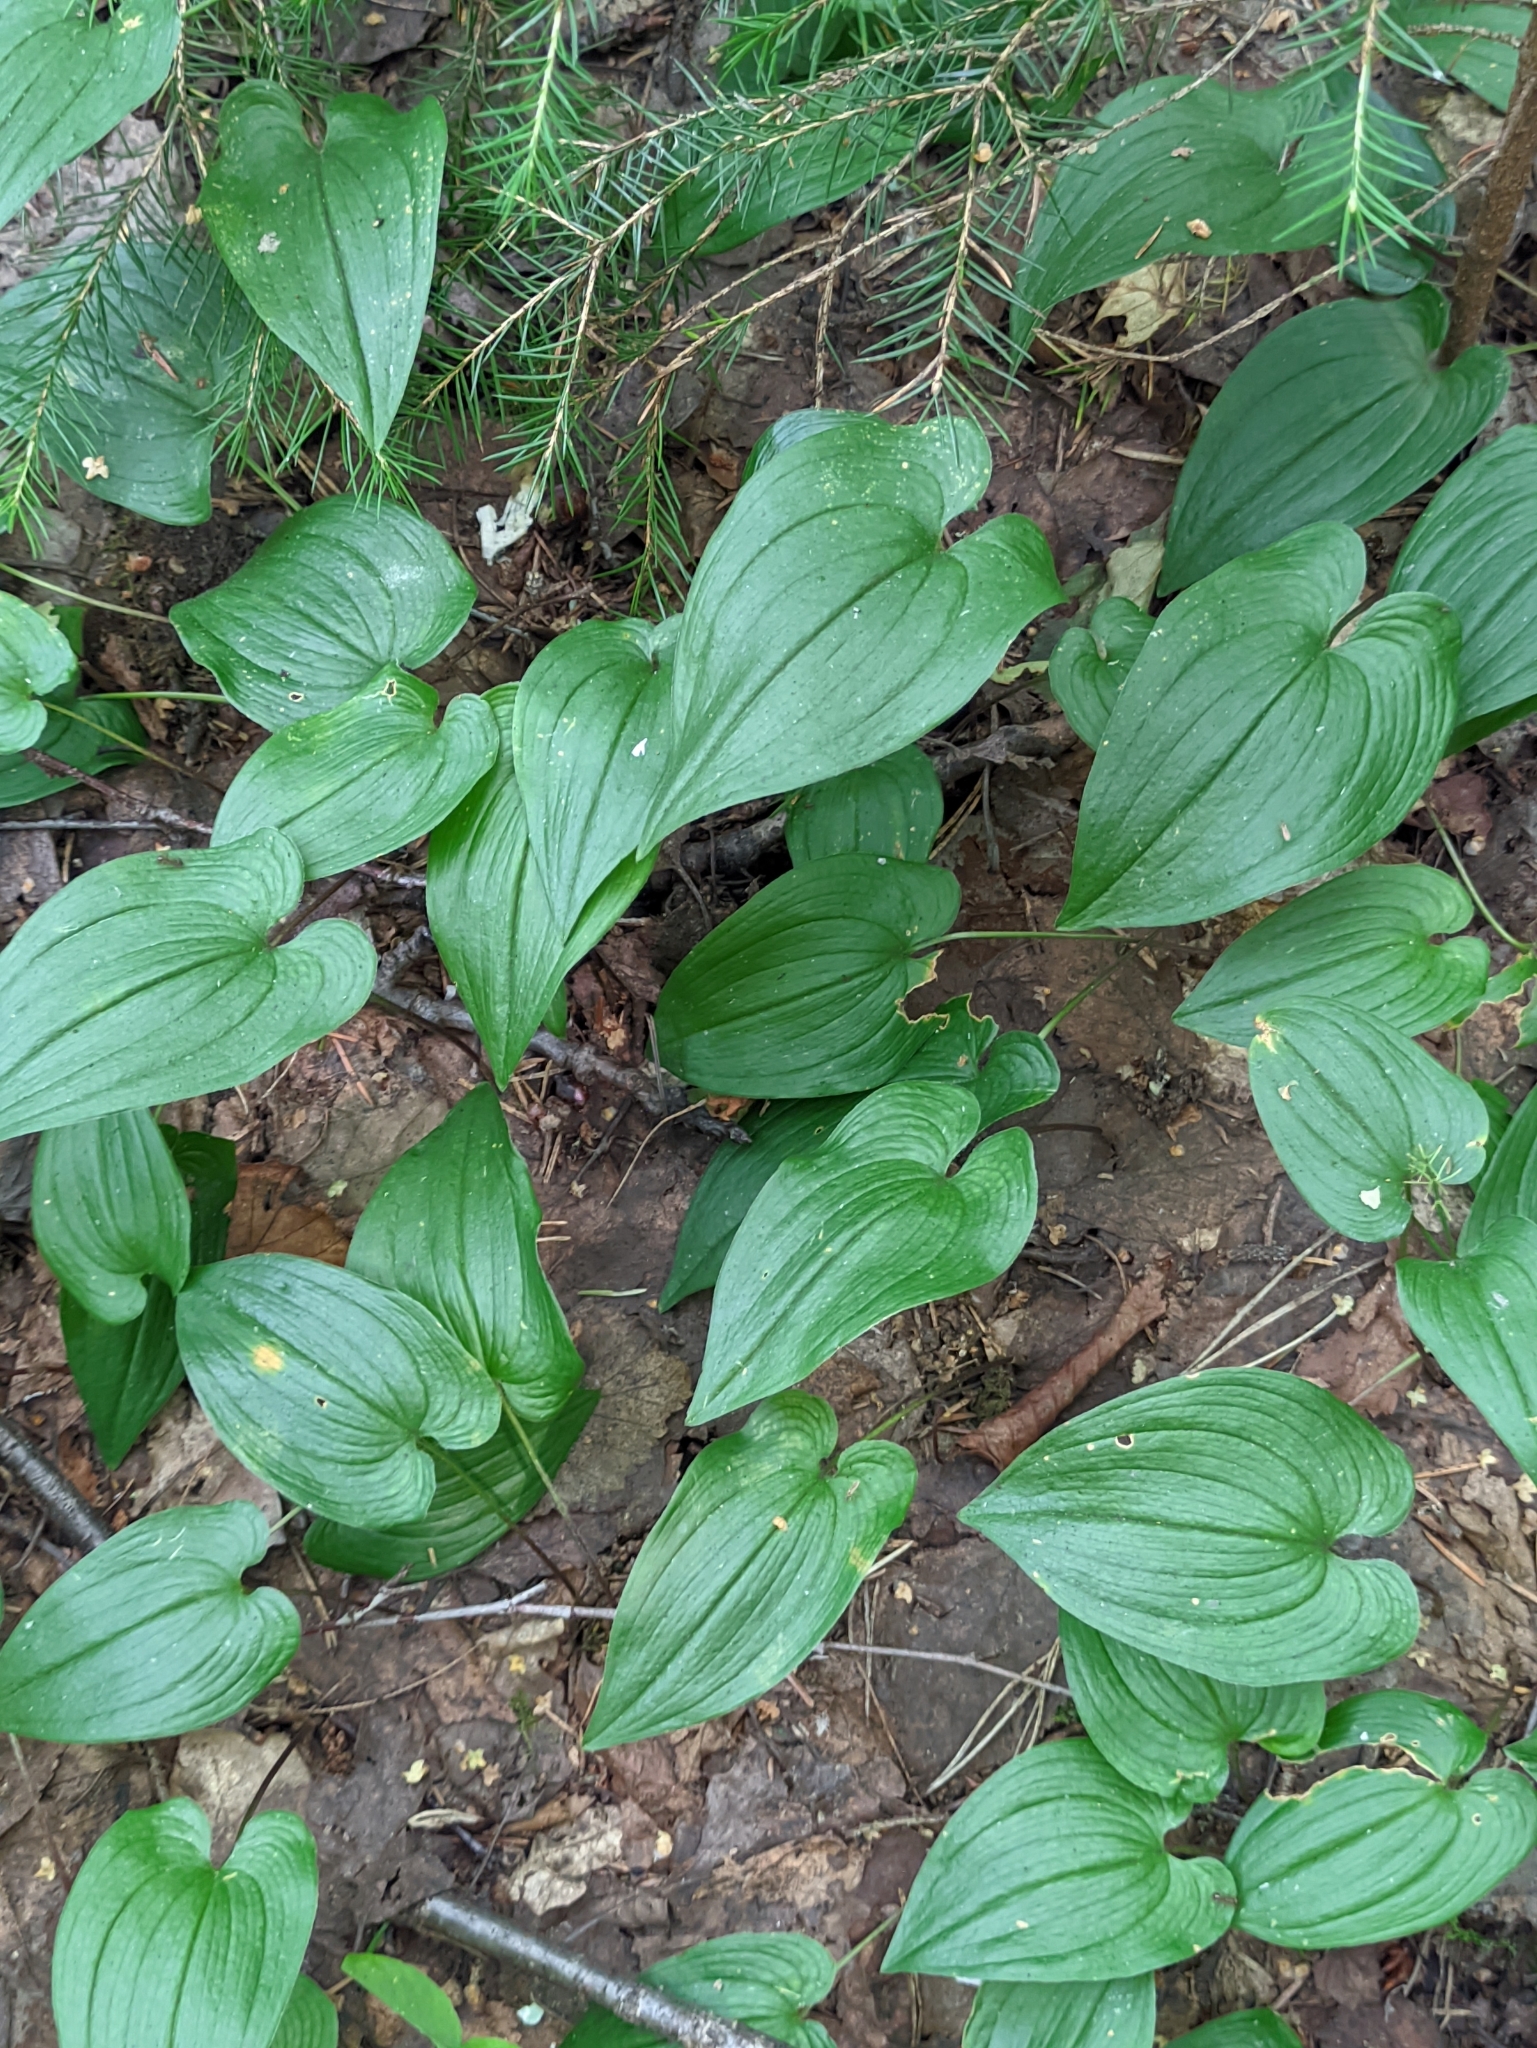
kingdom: Plantae
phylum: Tracheophyta
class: Liliopsida
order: Asparagales
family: Asparagaceae
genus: Maianthemum
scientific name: Maianthemum bifolium
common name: May lily
